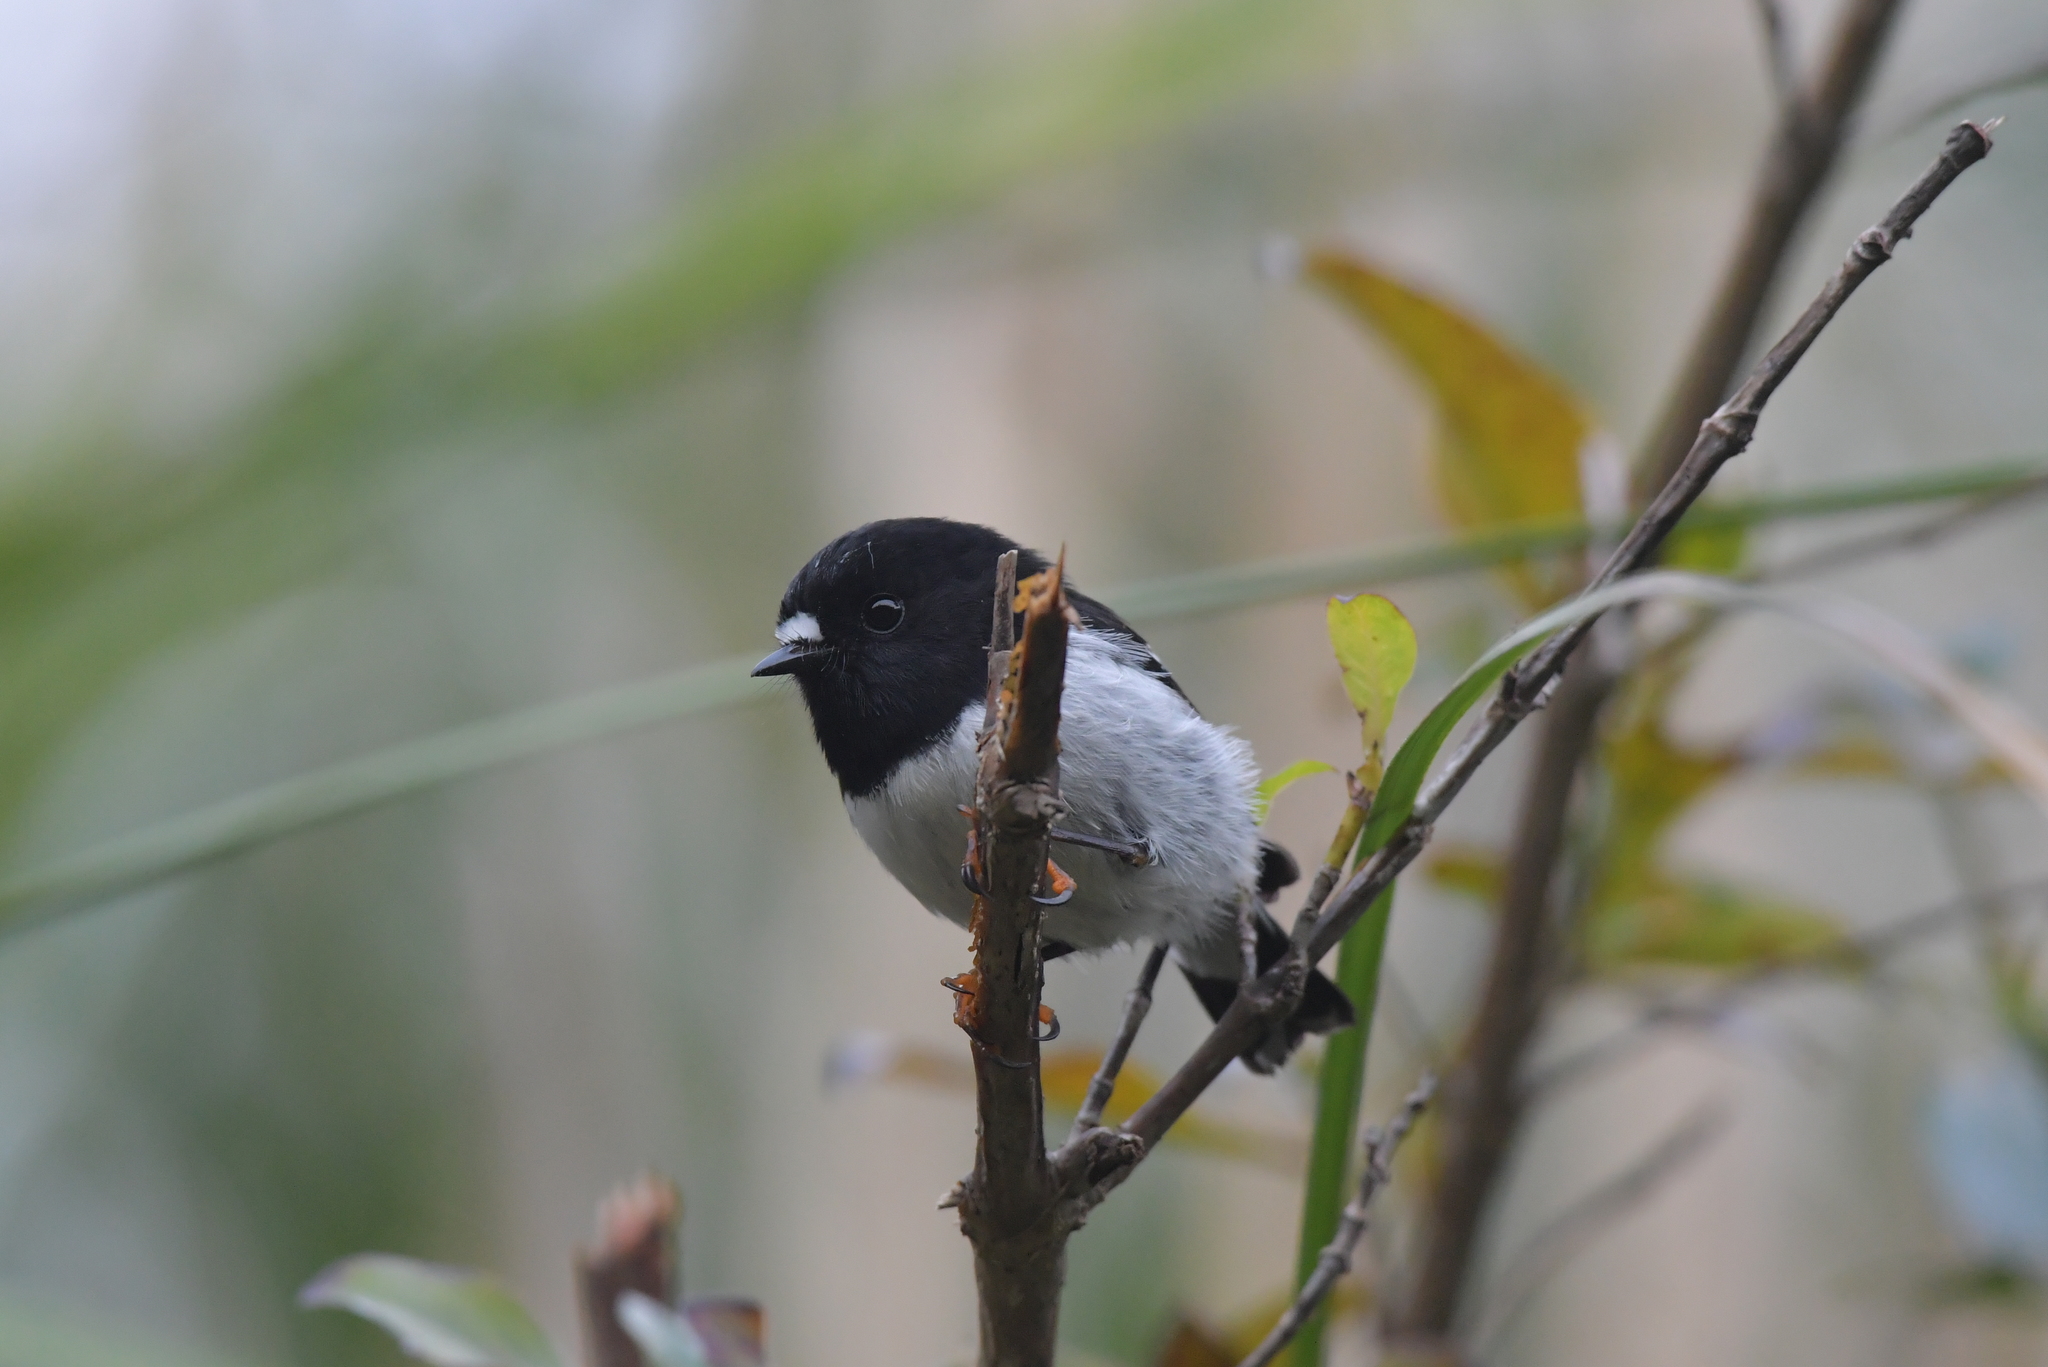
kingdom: Animalia
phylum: Chordata
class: Aves
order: Passeriformes
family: Petroicidae
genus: Petroica
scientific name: Petroica macrocephala
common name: Tomtit
